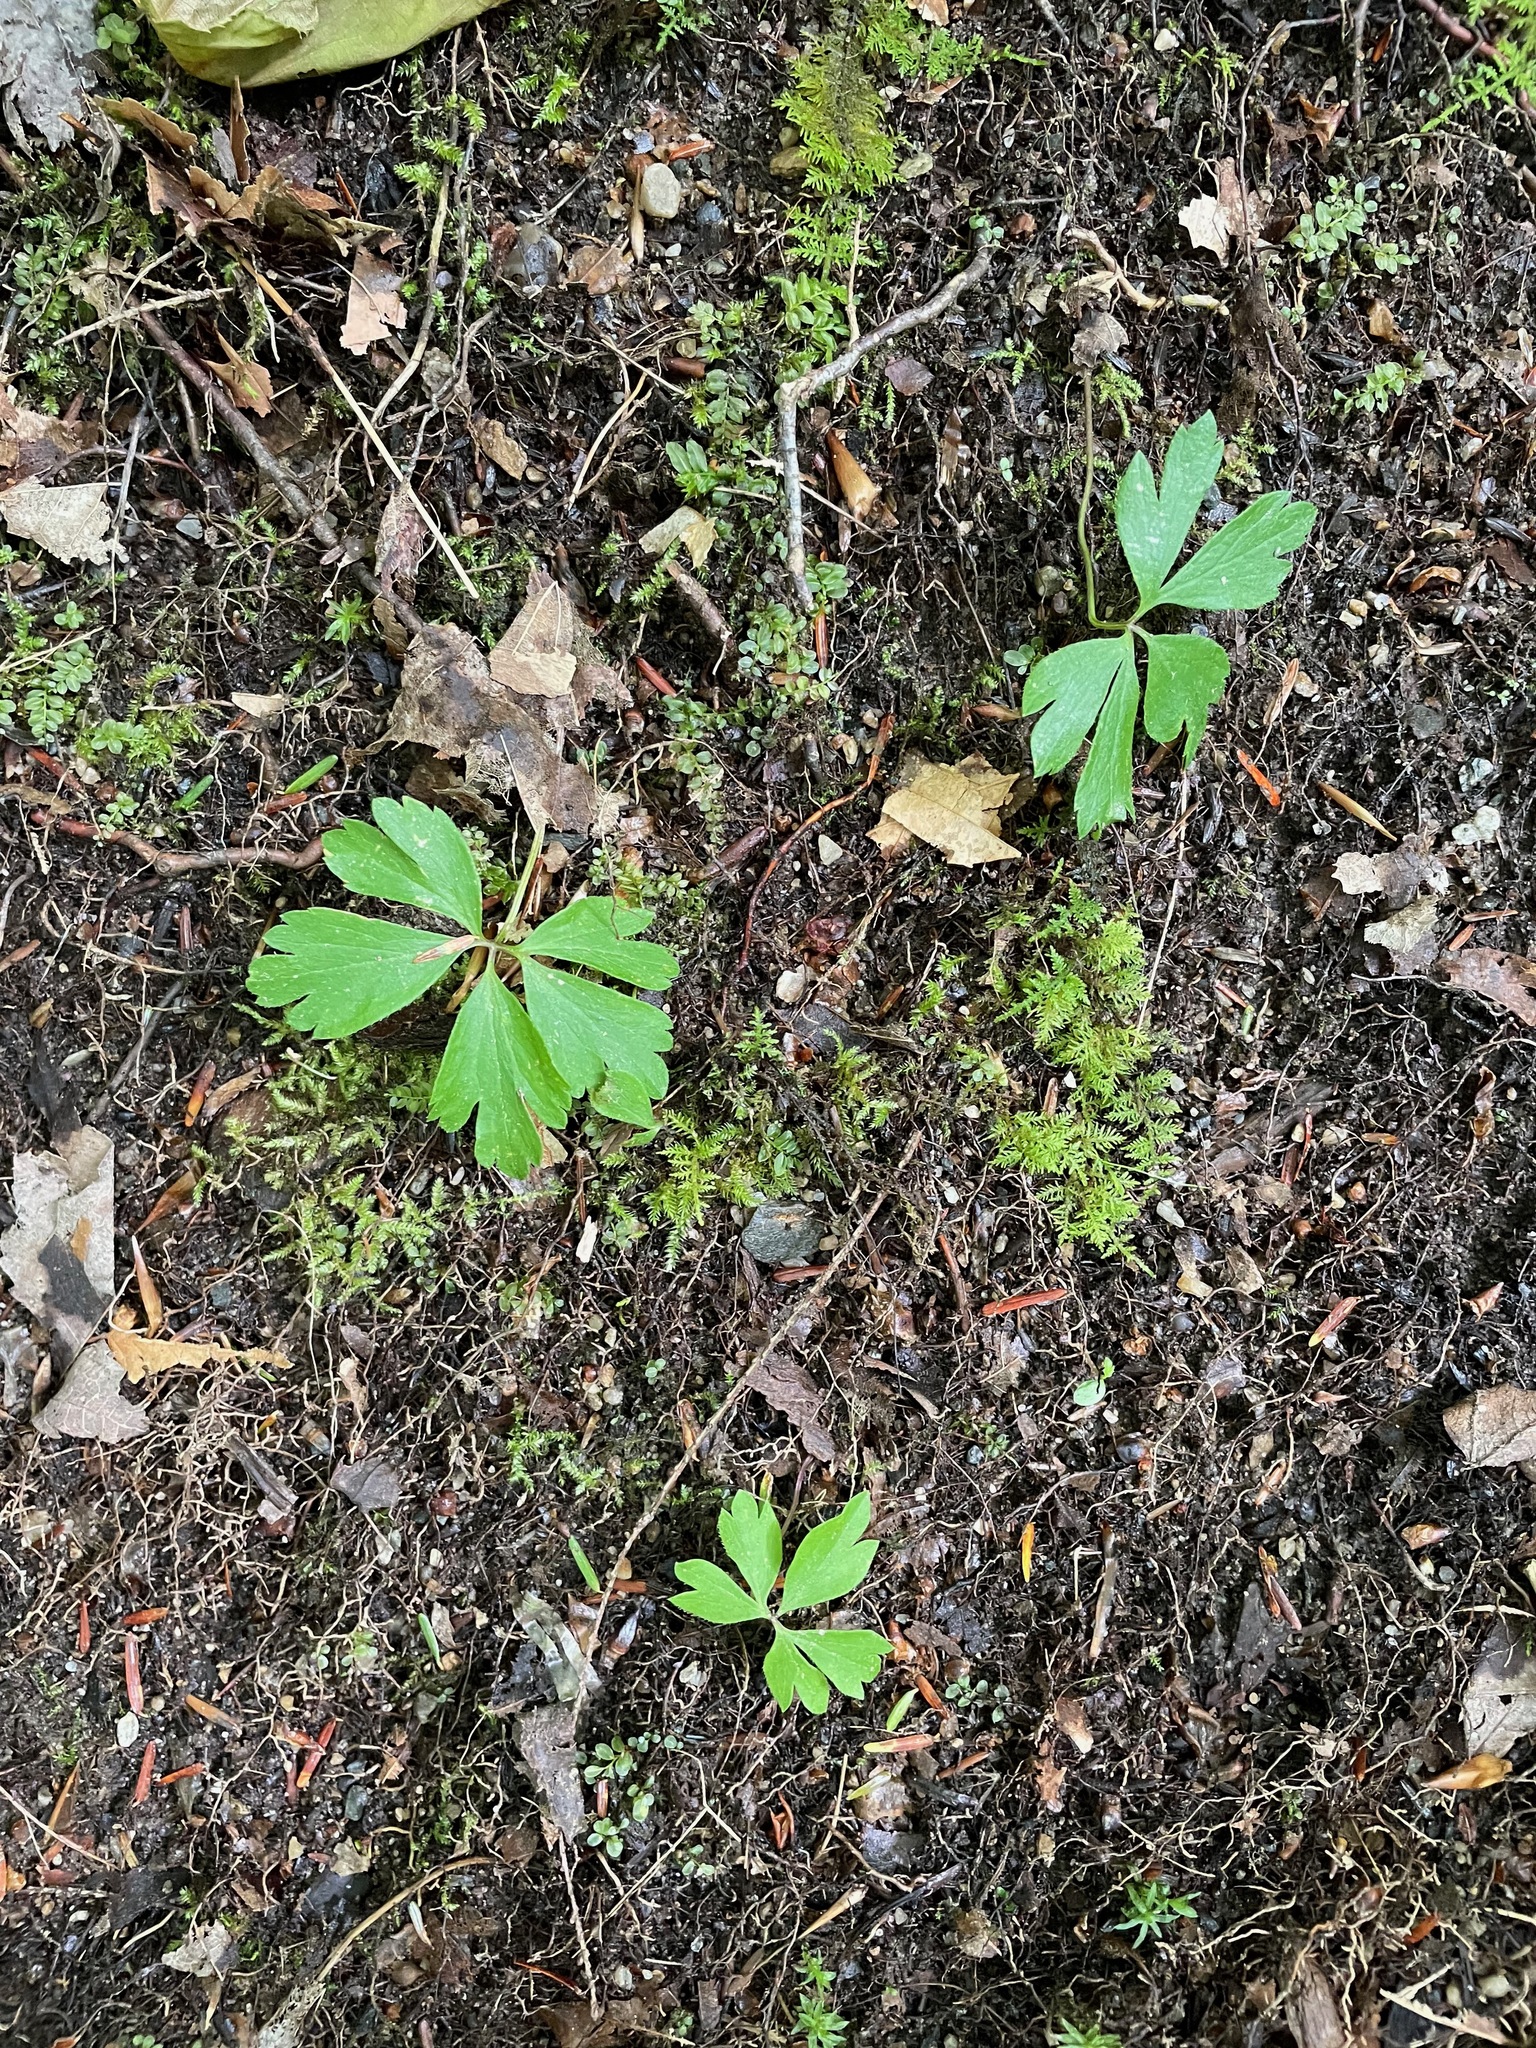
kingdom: Plantae
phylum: Tracheophyta
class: Magnoliopsida
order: Ranunculales
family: Ranunculaceae
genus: Anemone
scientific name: Anemone quinquefolia
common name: Wood anemone
